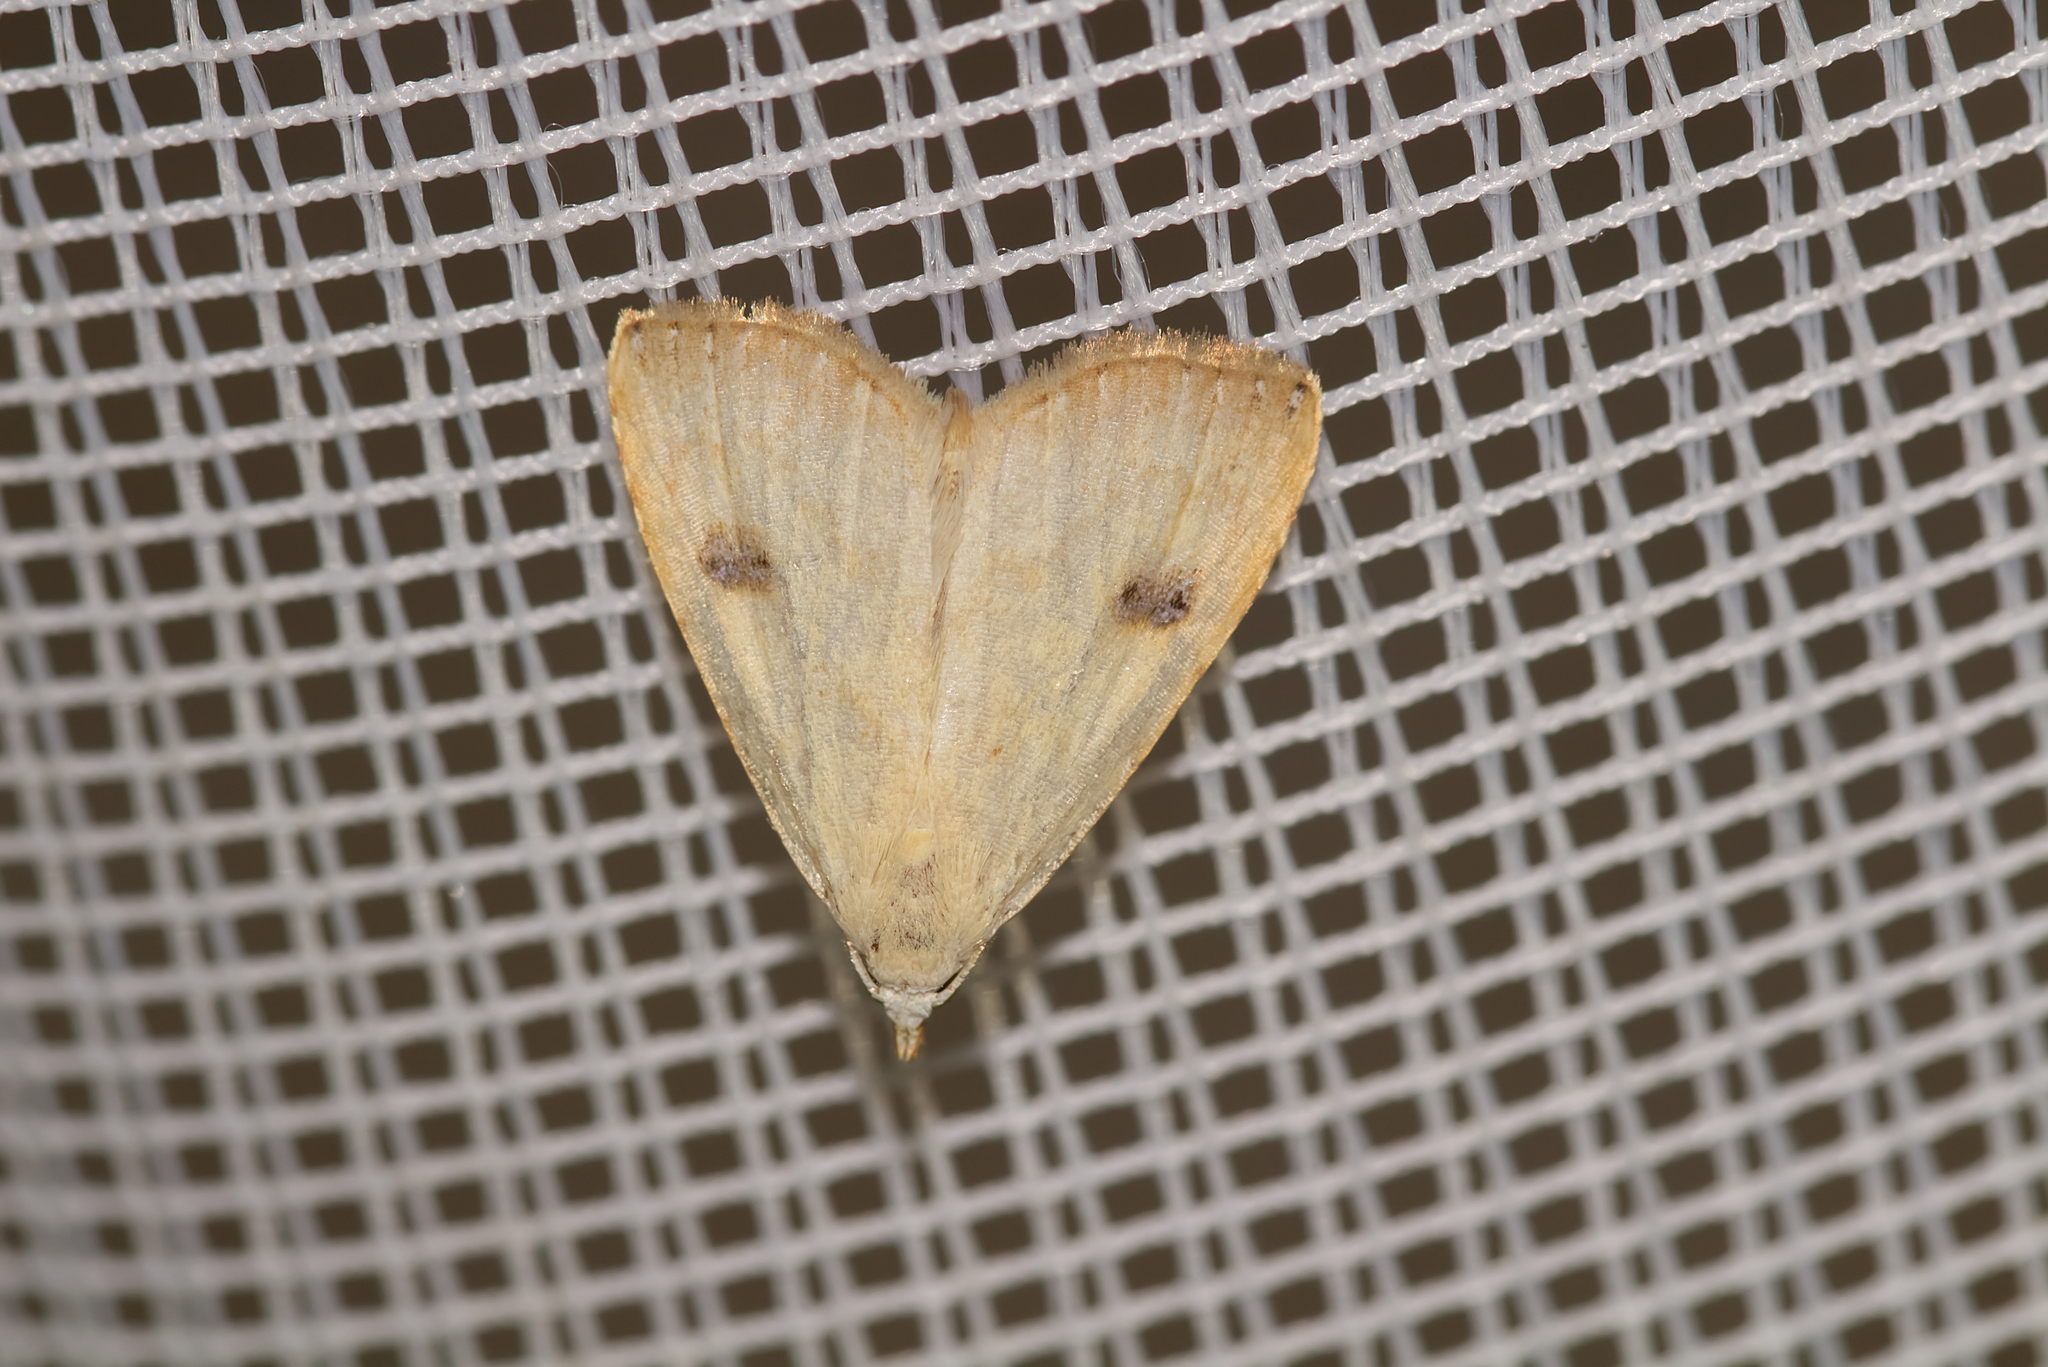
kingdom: Animalia
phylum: Arthropoda
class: Insecta
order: Lepidoptera
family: Erebidae
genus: Rivula
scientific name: Rivula sericealis
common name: Straw dot
